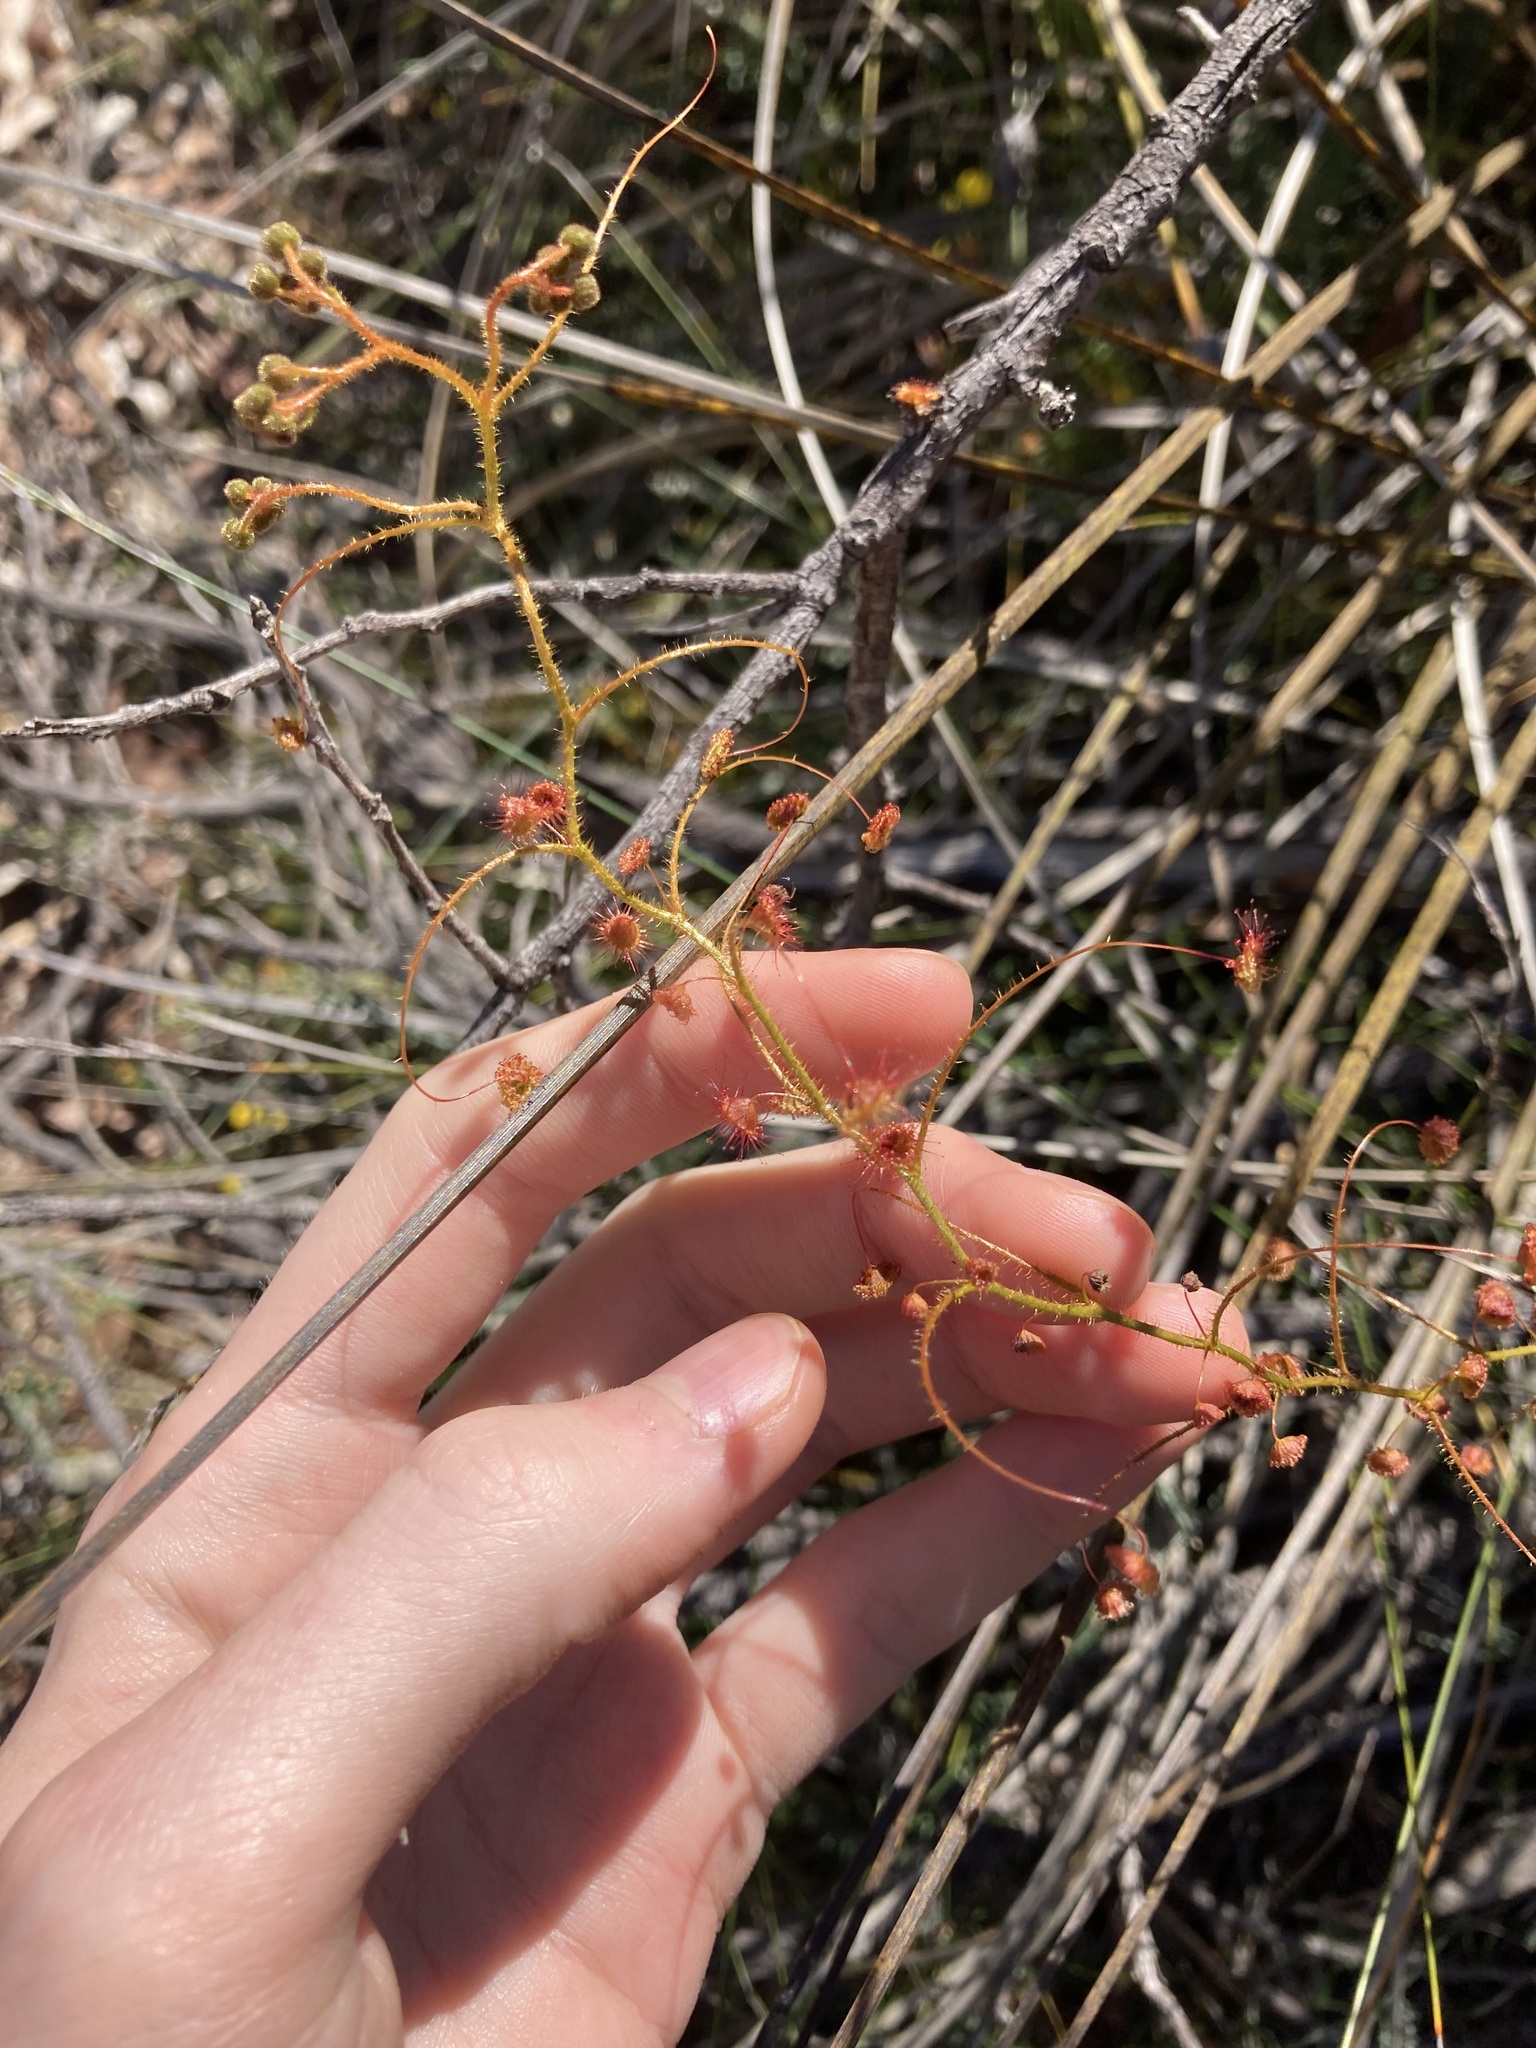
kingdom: Plantae
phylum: Tracheophyta
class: Magnoliopsida
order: Caryophyllales
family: Droseraceae
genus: Drosera
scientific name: Drosera macrantha
